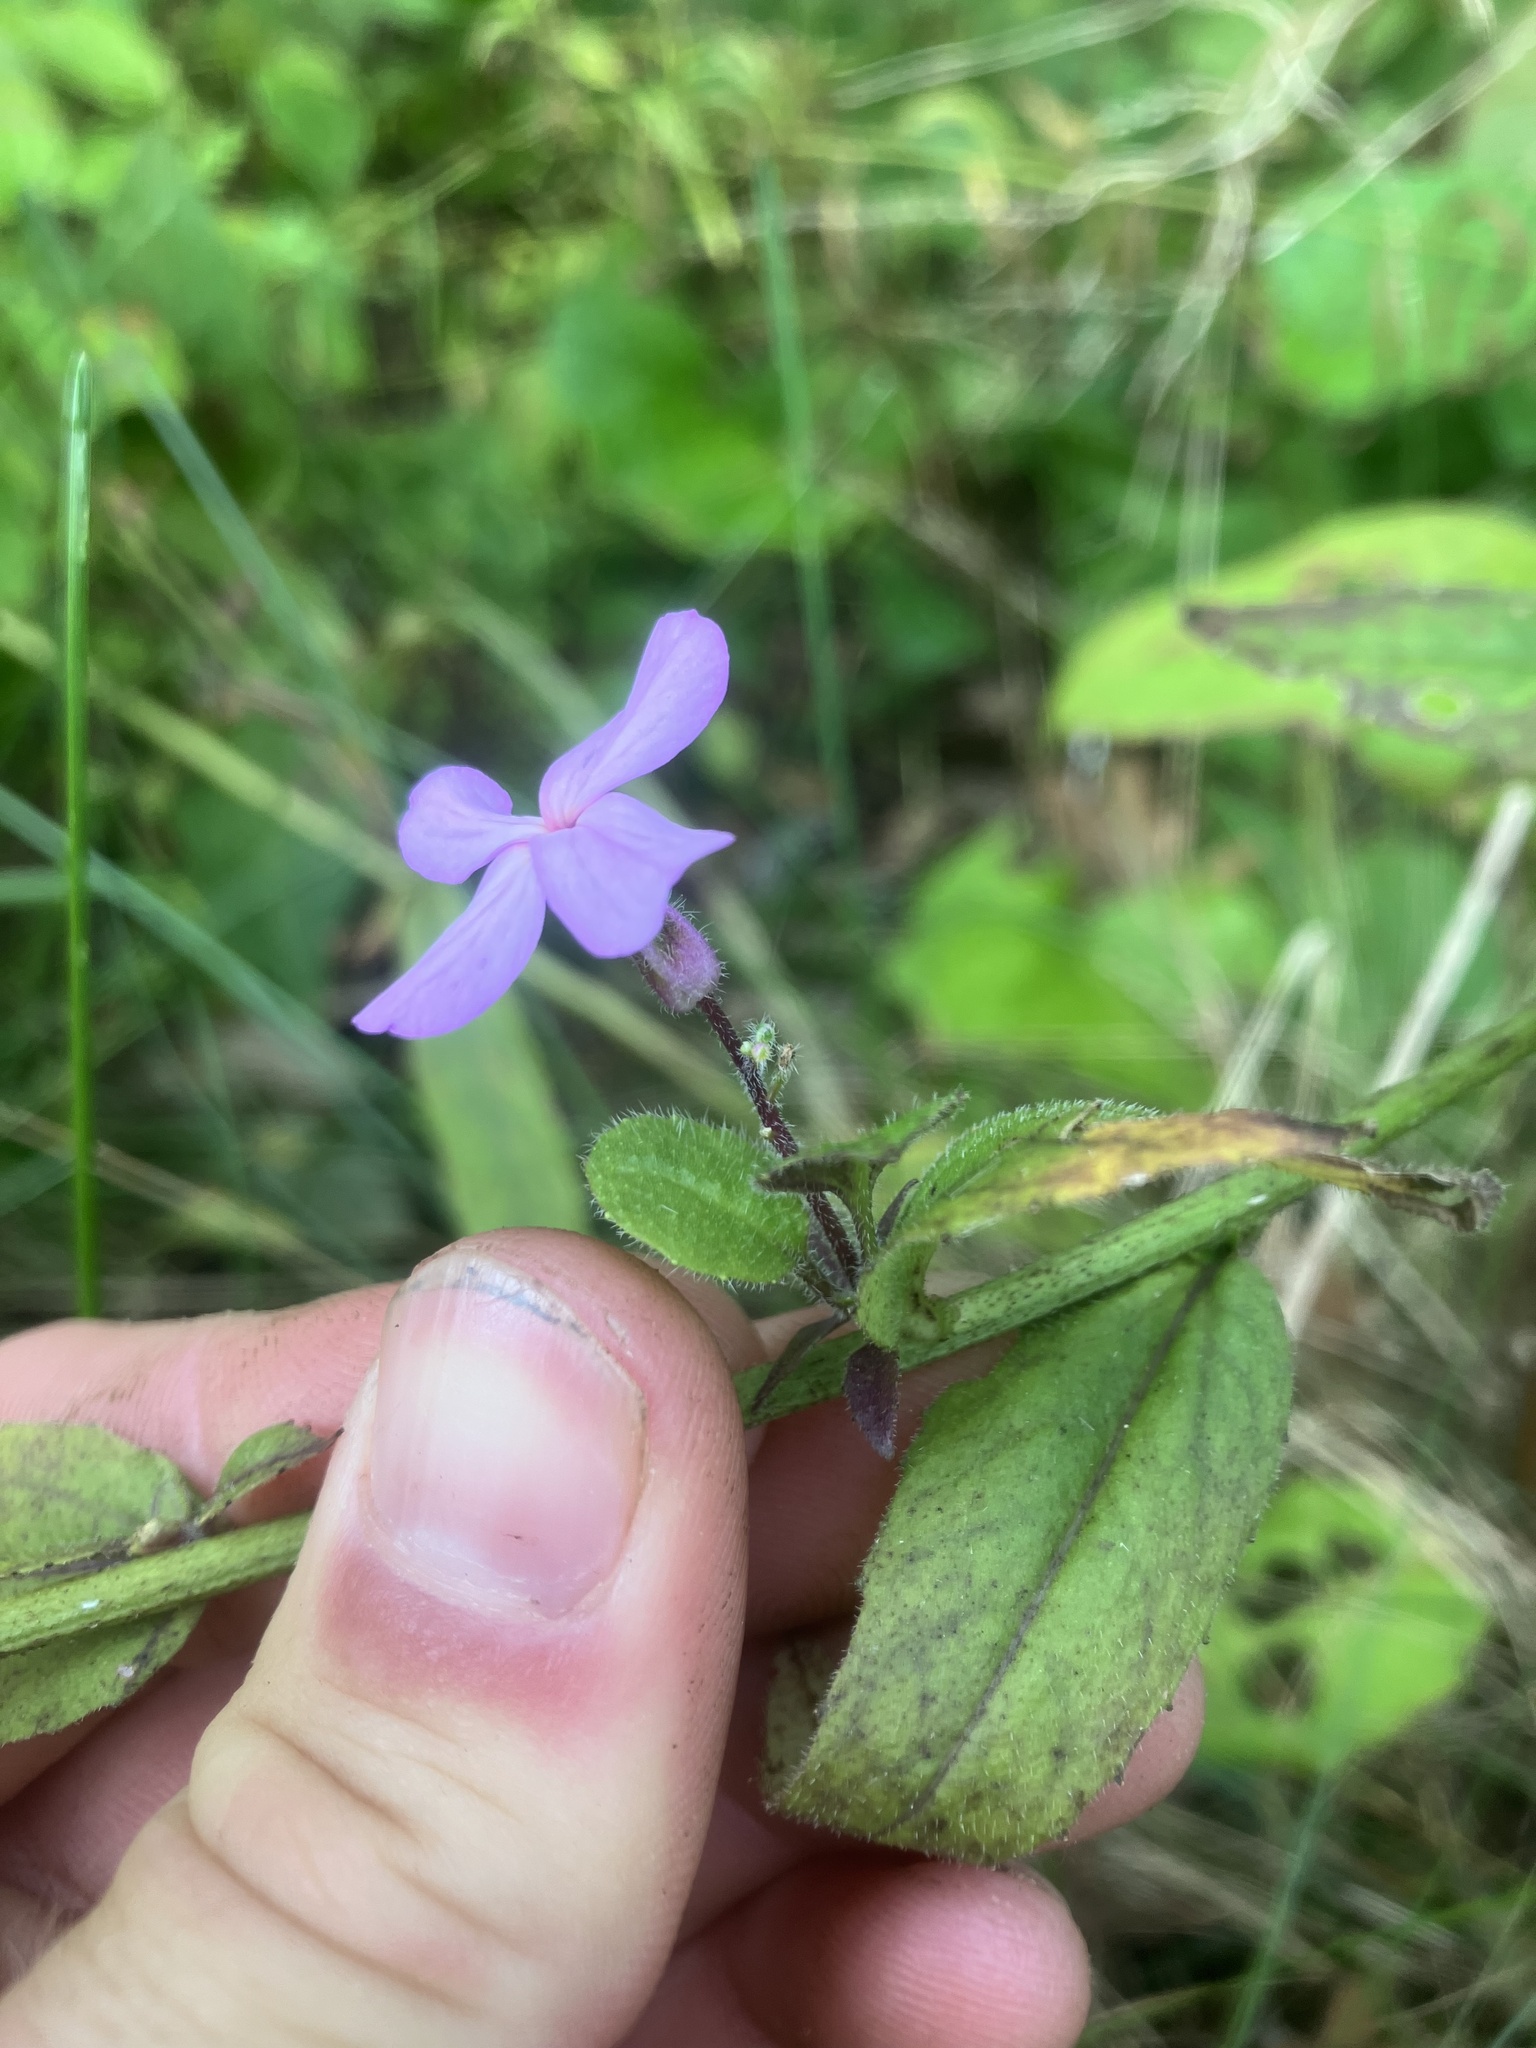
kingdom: Plantae
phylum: Tracheophyta
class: Magnoliopsida
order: Brassicales
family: Brassicaceae
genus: Hesperis
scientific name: Hesperis matronalis
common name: Dame's-violet
